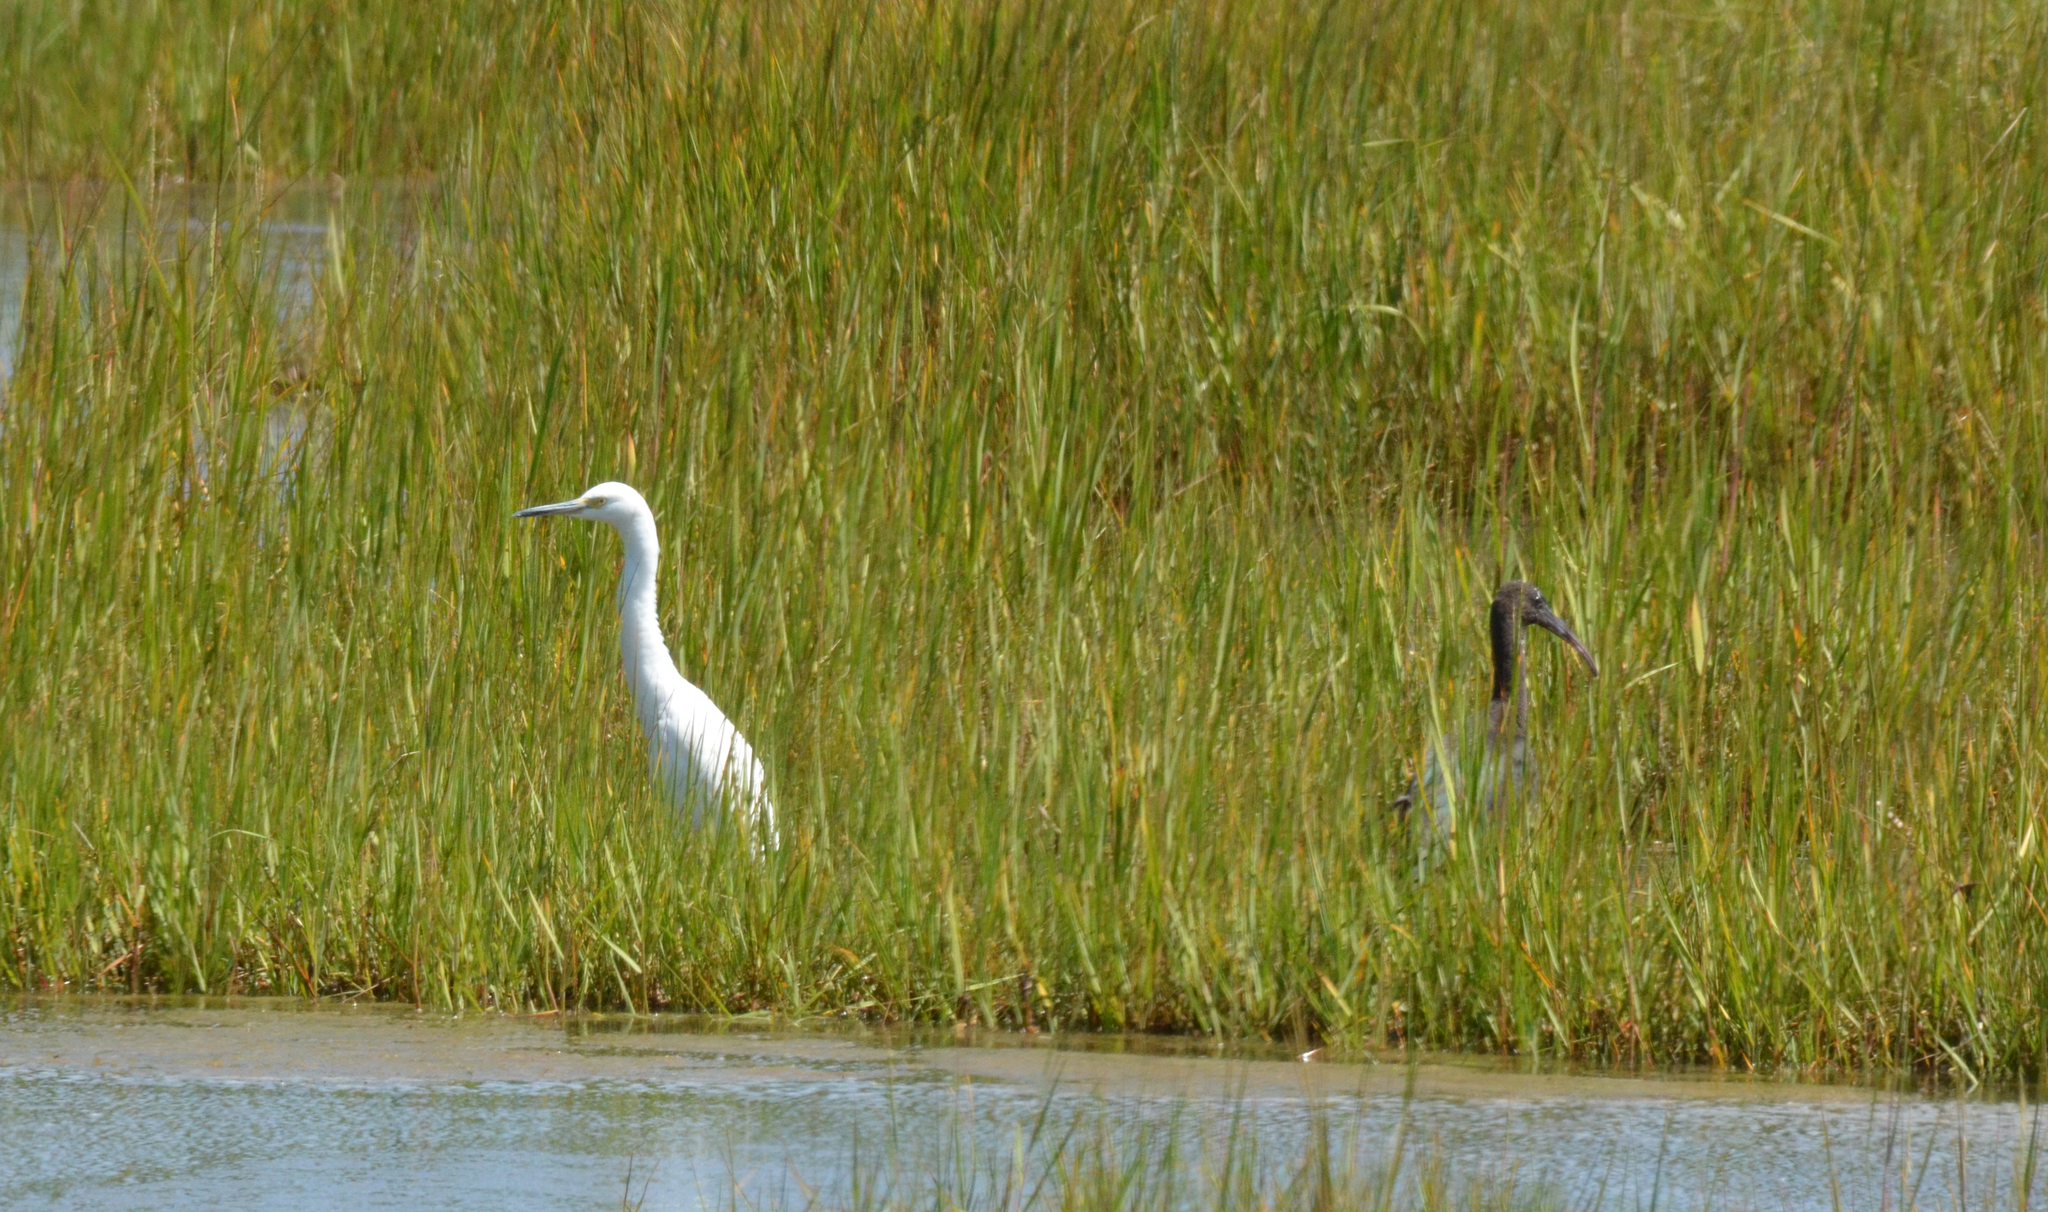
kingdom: Animalia
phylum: Chordata
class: Aves
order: Pelecaniformes
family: Ardeidae
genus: Egretta
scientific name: Egretta thula
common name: Snowy egret
